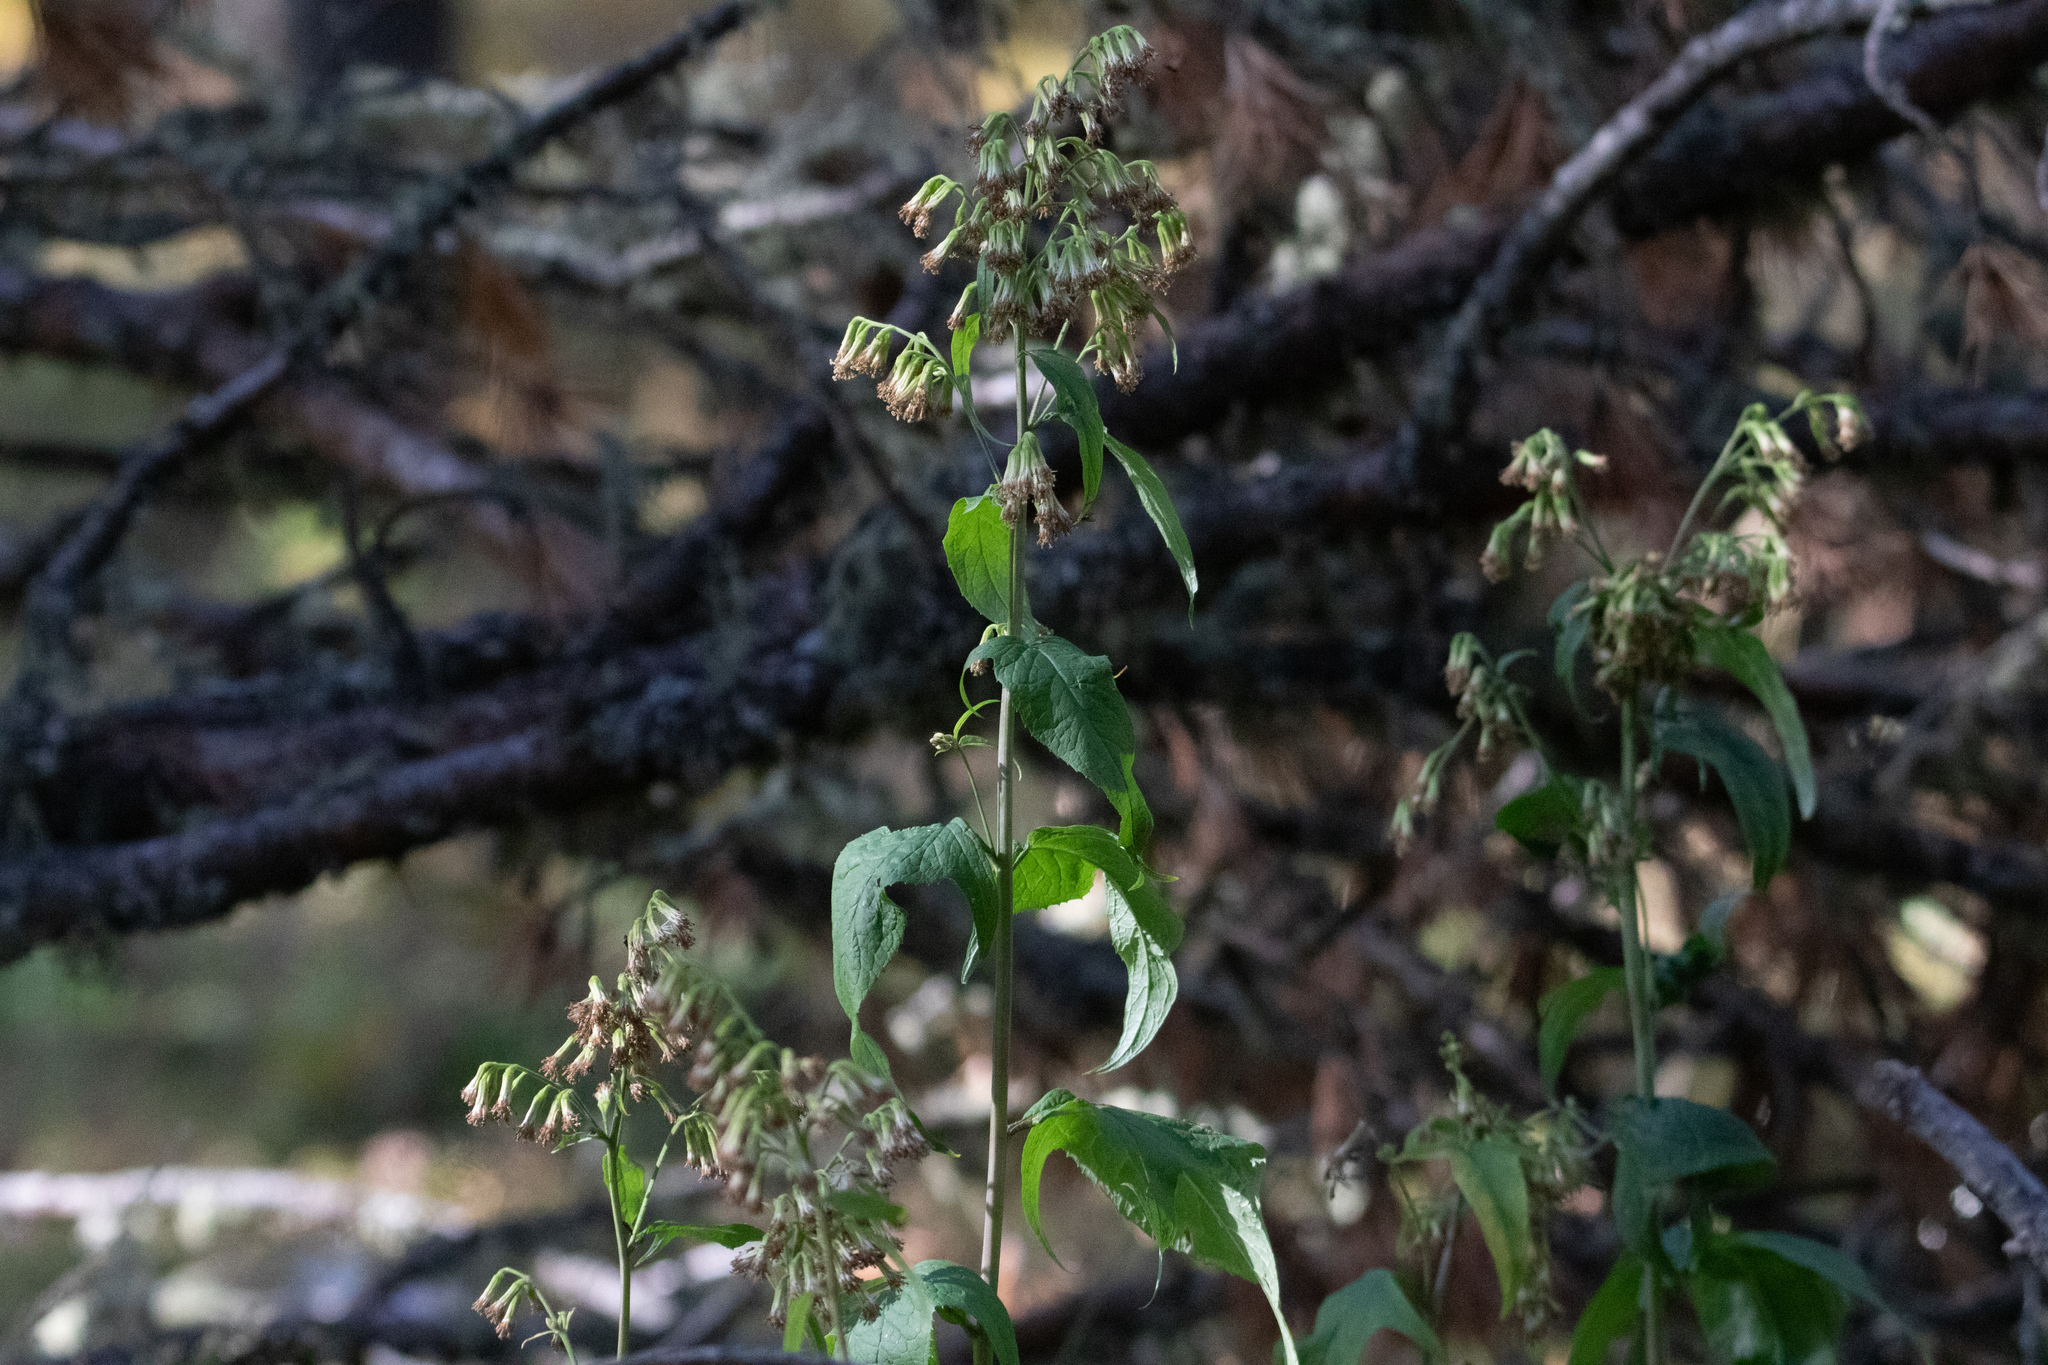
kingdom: Plantae
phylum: Tracheophyta
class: Magnoliopsida
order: Asterales
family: Asteraceae
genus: Parasenecio
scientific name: Parasenecio hastatus
